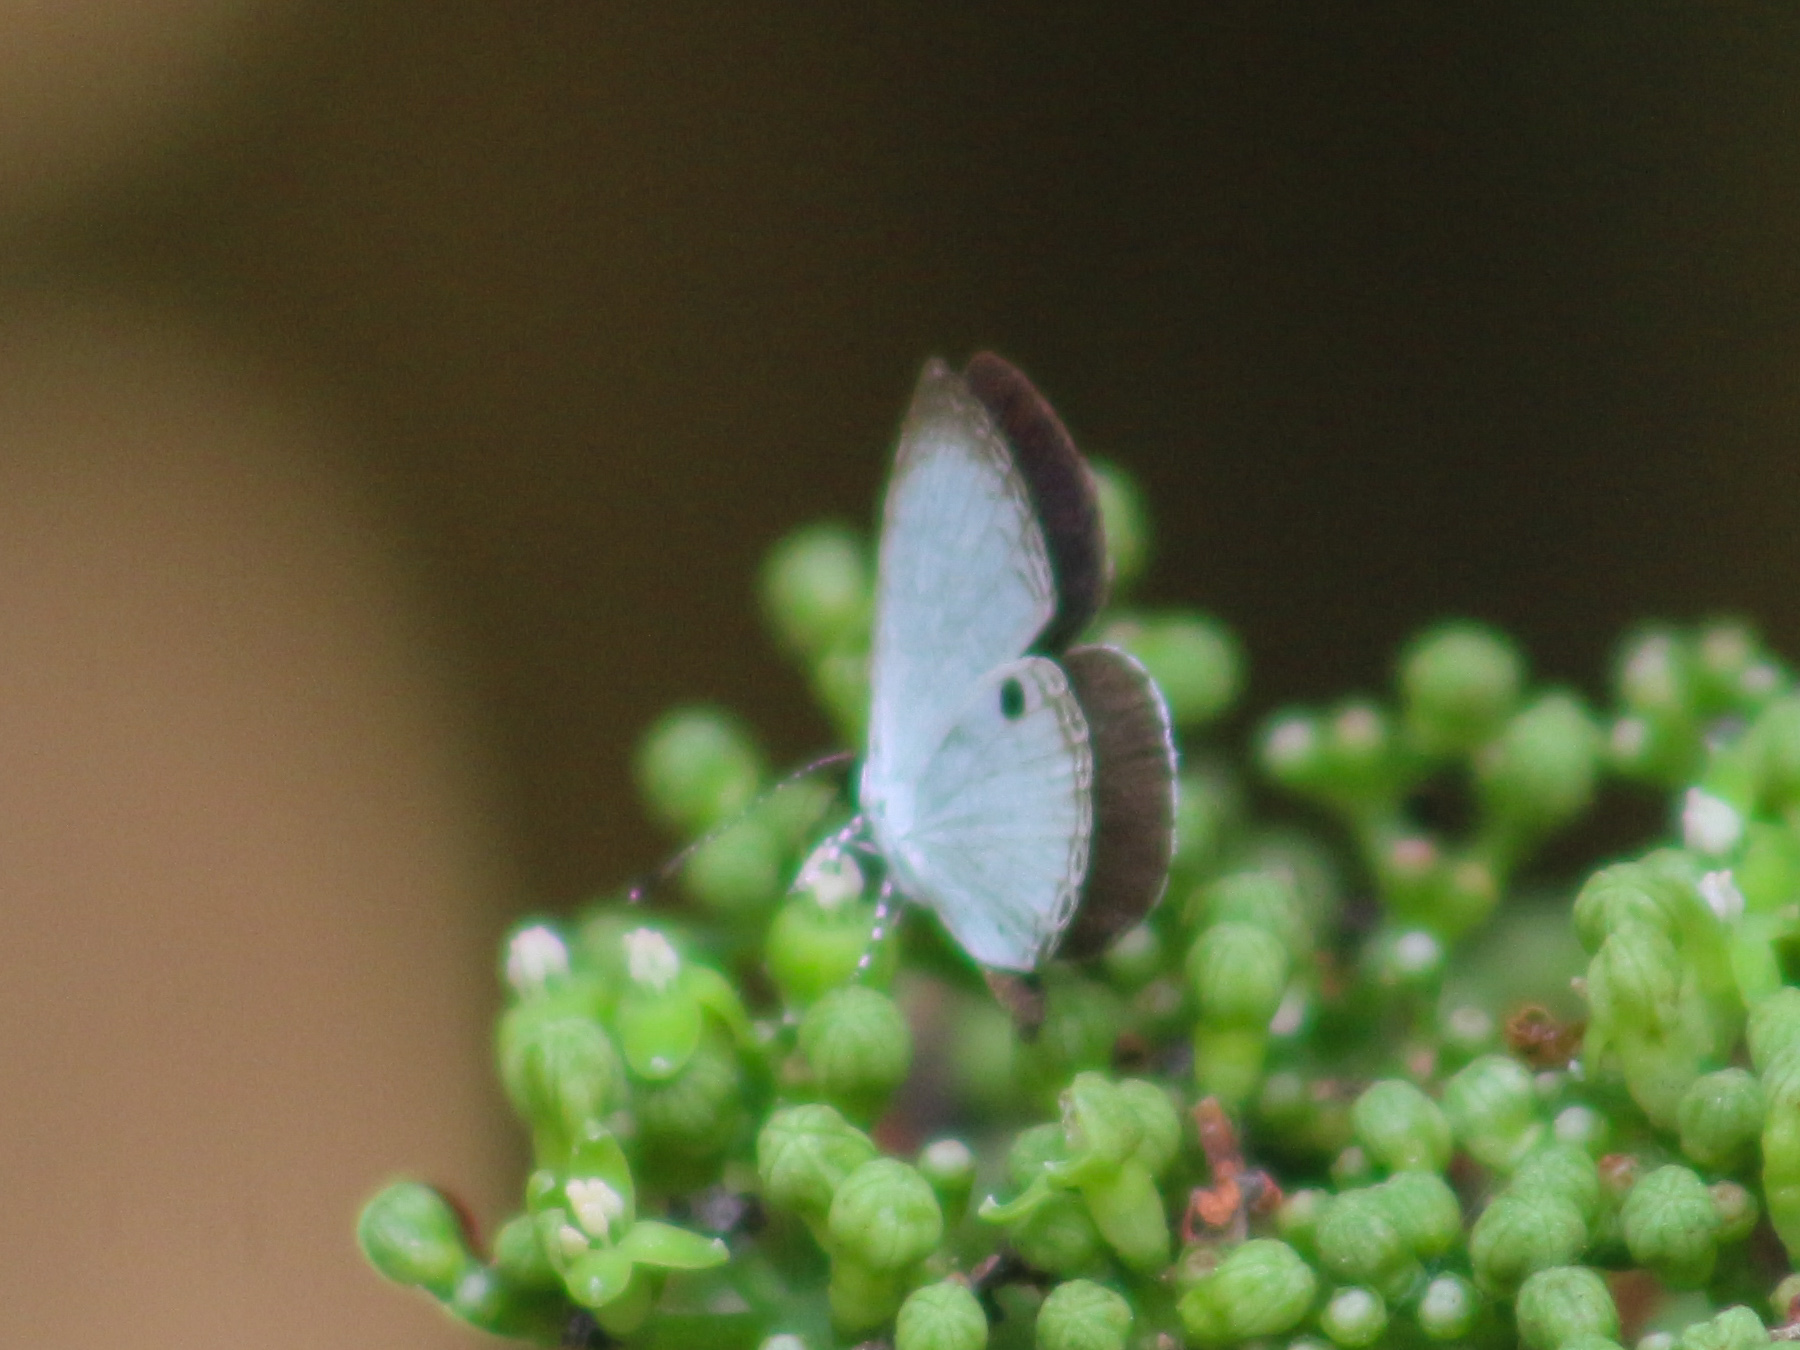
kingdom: Animalia
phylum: Arthropoda
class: Insecta
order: Lepidoptera
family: Lycaenidae
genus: Neopithecops
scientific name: Neopithecops zalmora
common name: Quaker
